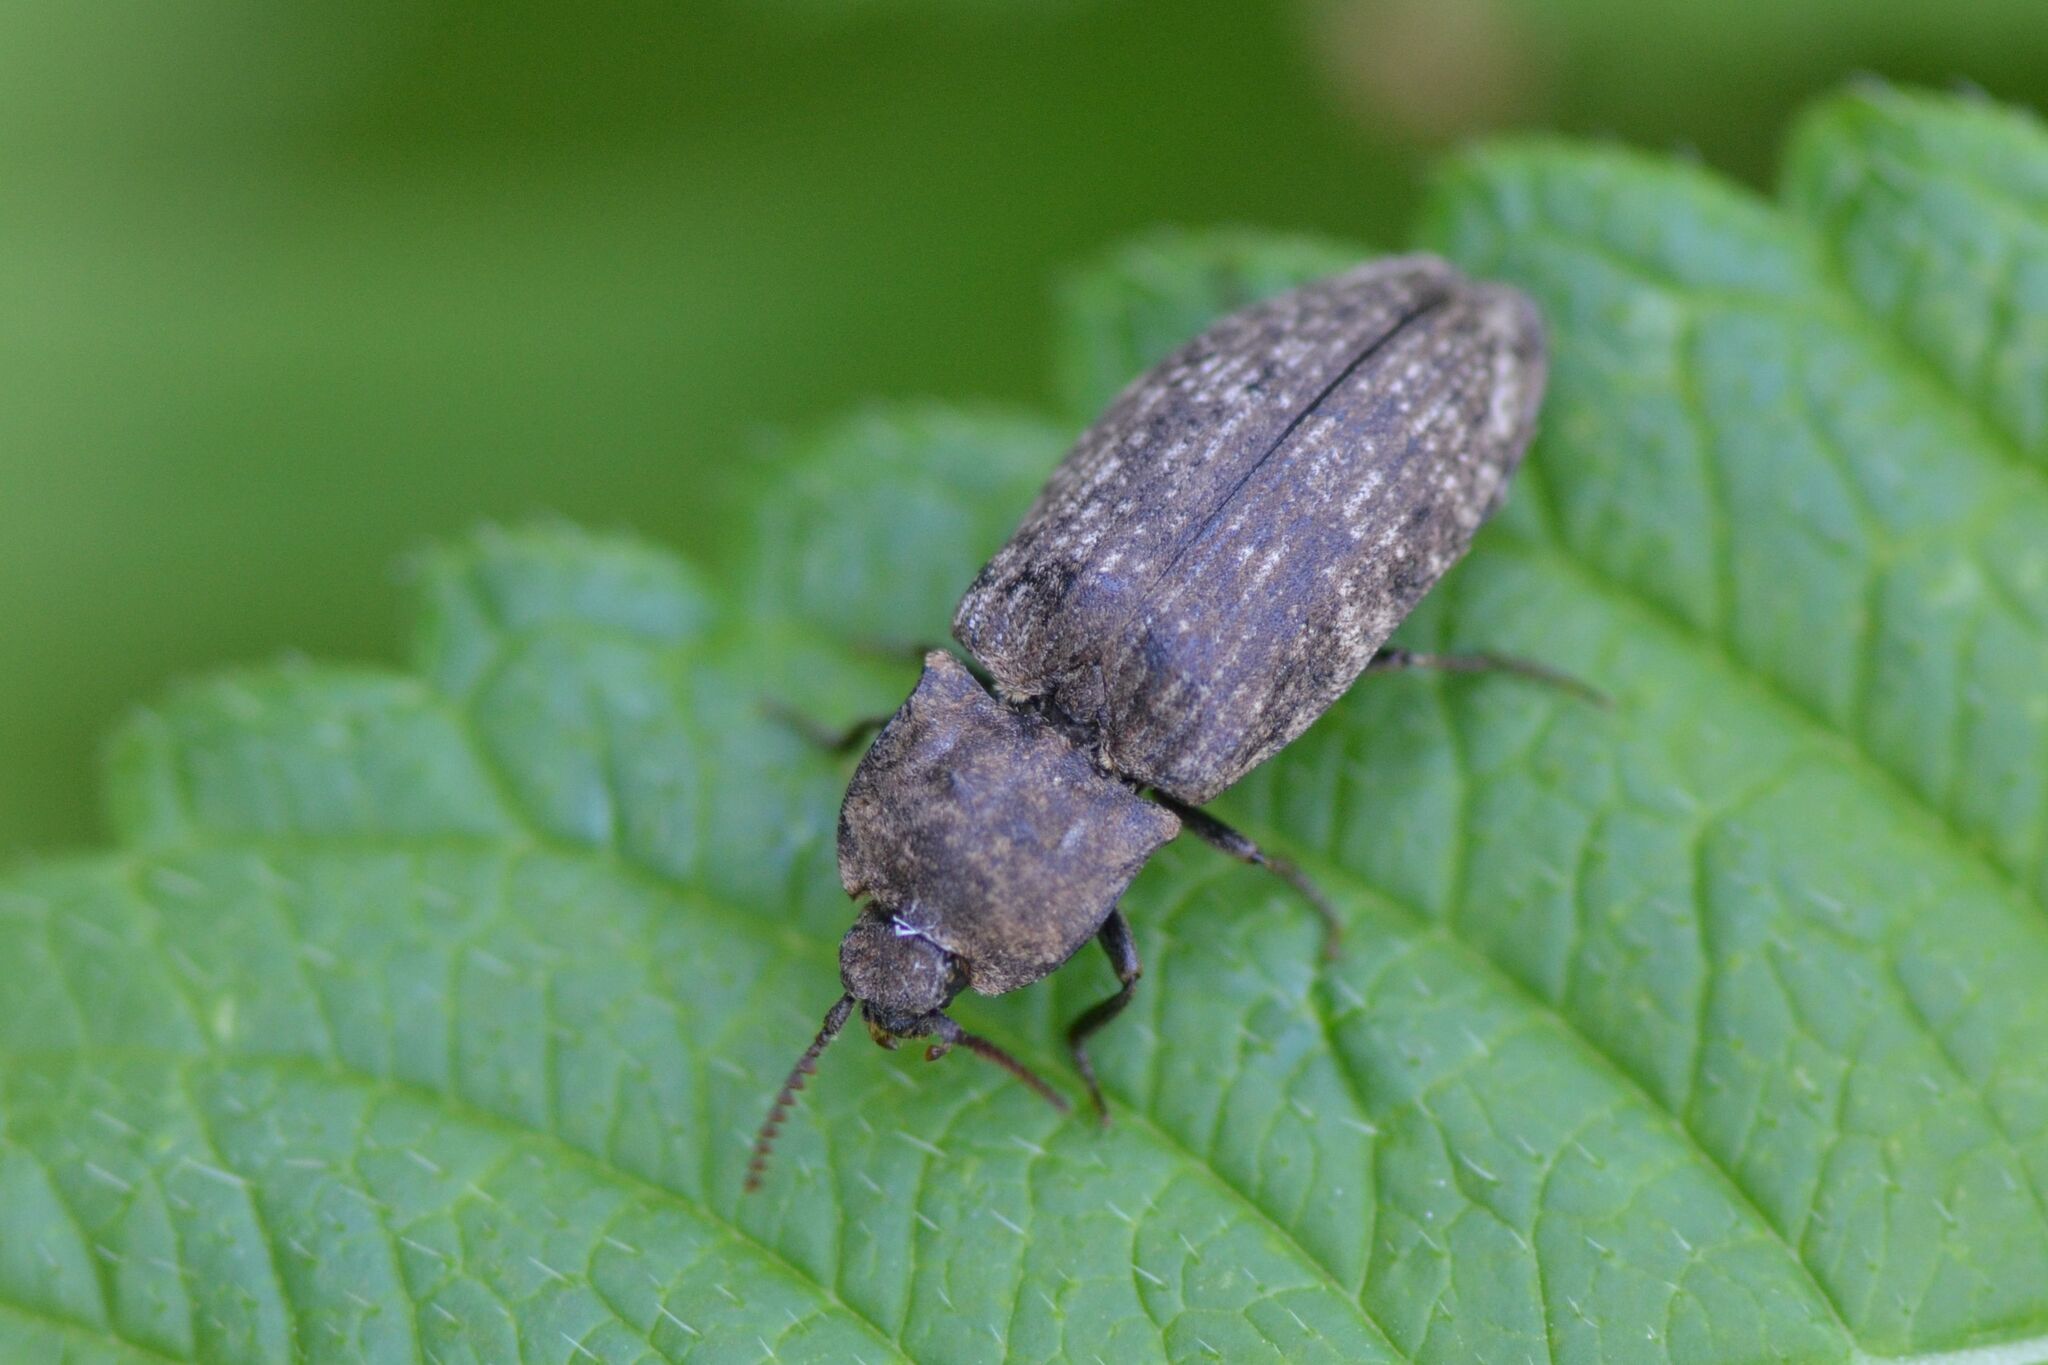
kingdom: Animalia
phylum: Arthropoda
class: Insecta
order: Coleoptera
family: Elateridae
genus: Agrypnus
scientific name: Agrypnus murinus
